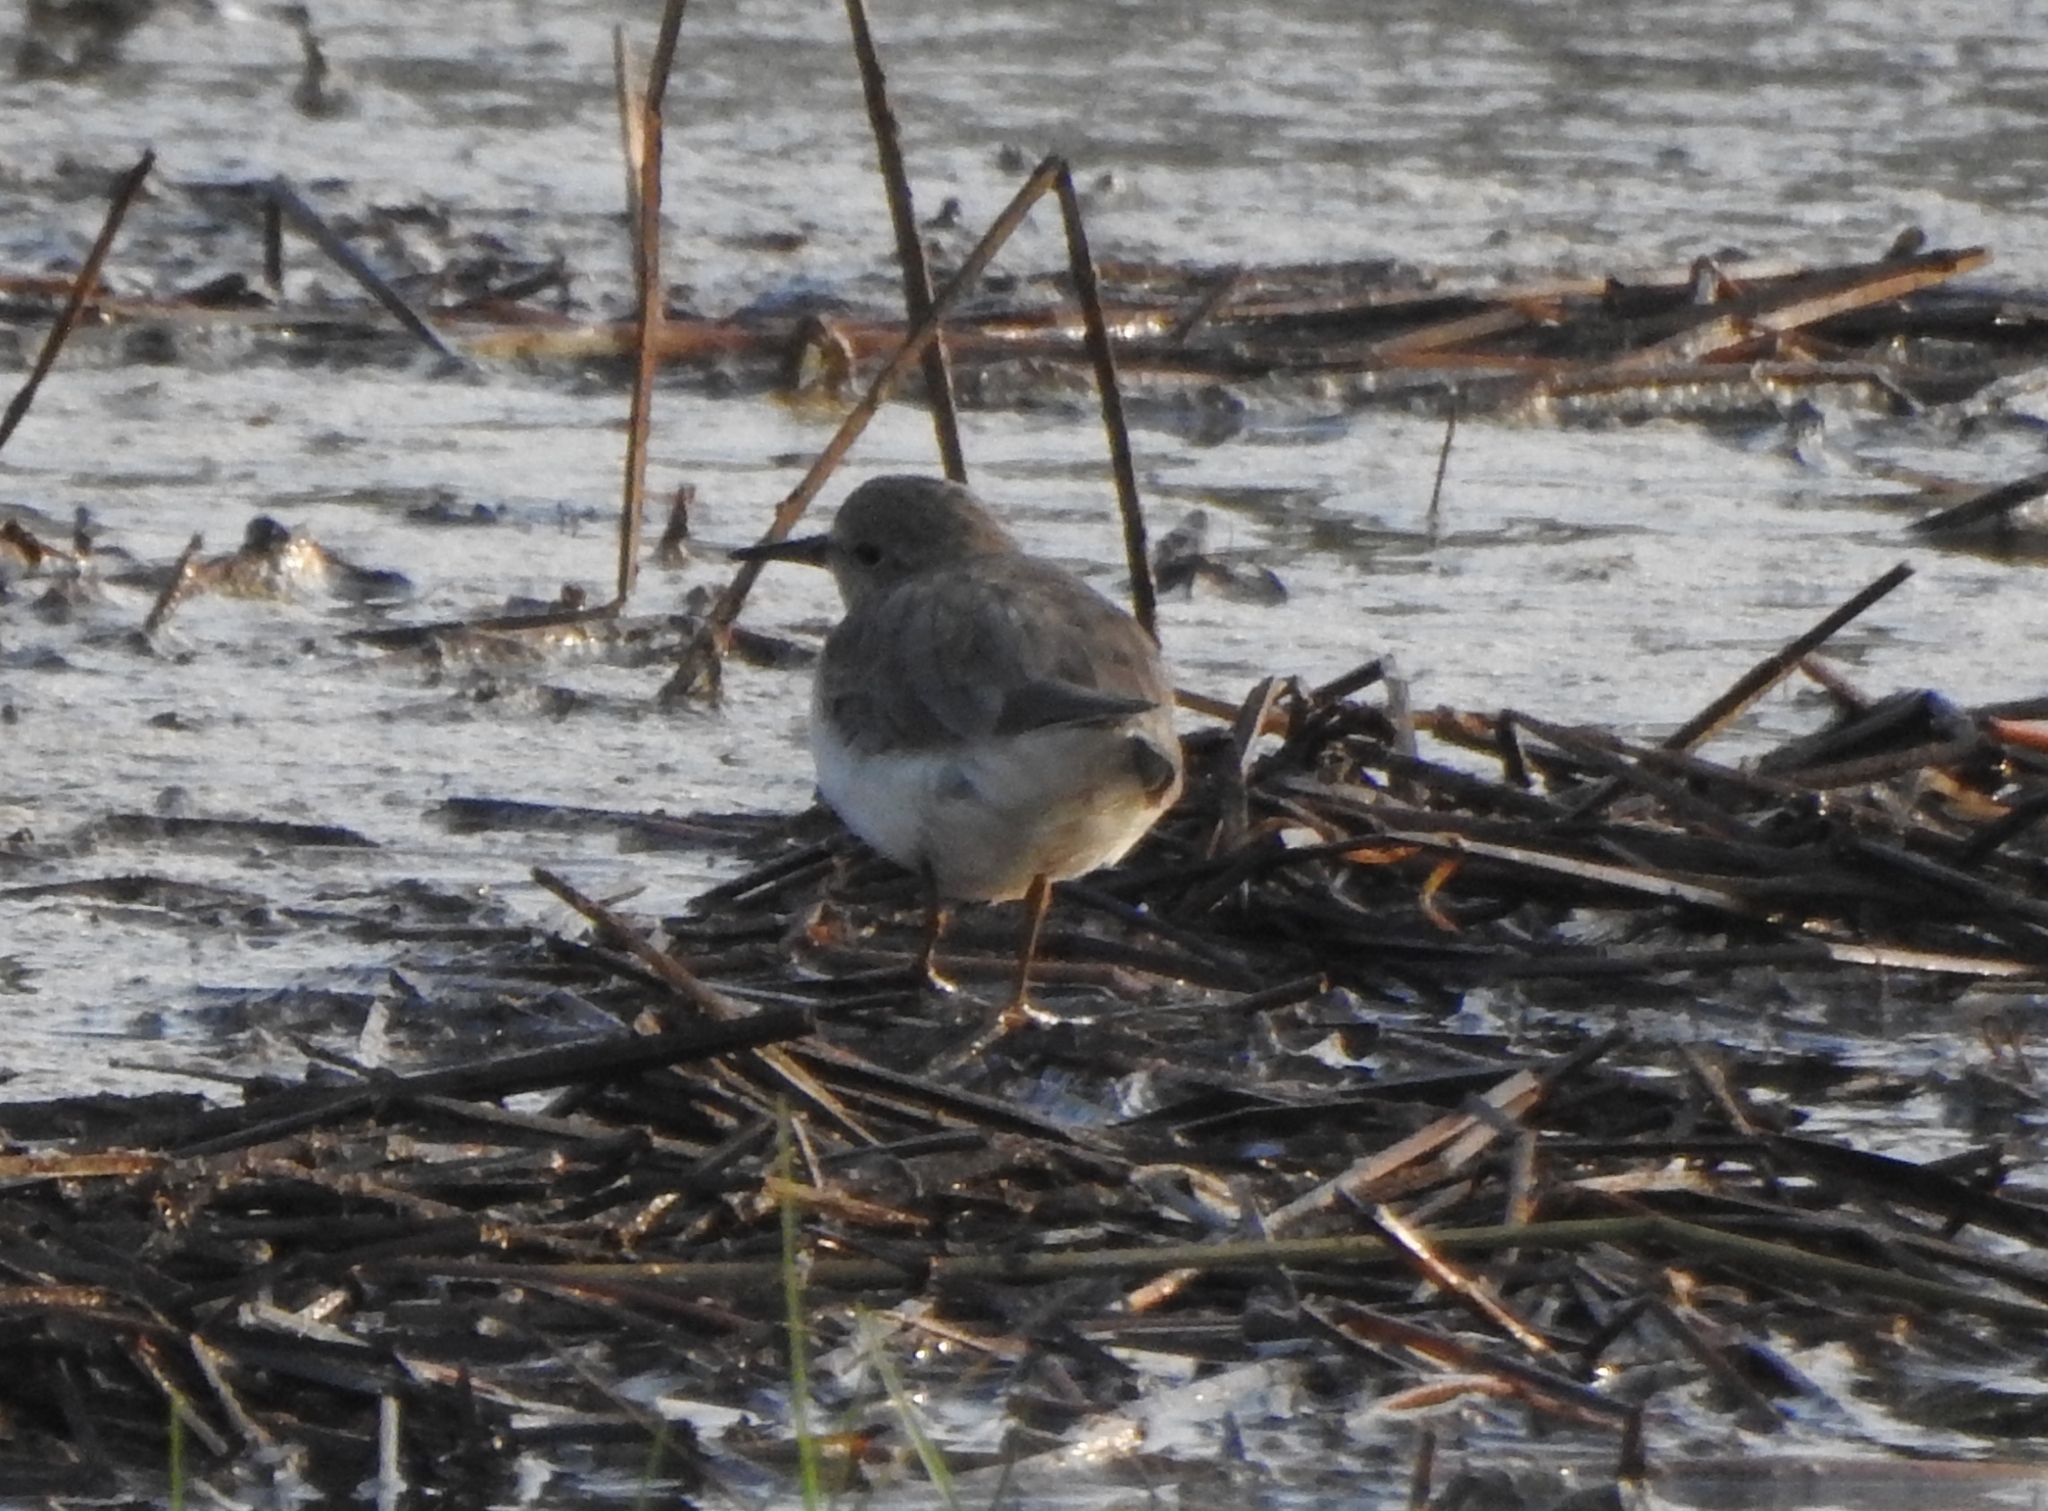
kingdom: Animalia
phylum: Chordata
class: Aves
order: Charadriiformes
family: Scolopacidae
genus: Calidris
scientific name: Calidris temminckii
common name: Temminck's stint
